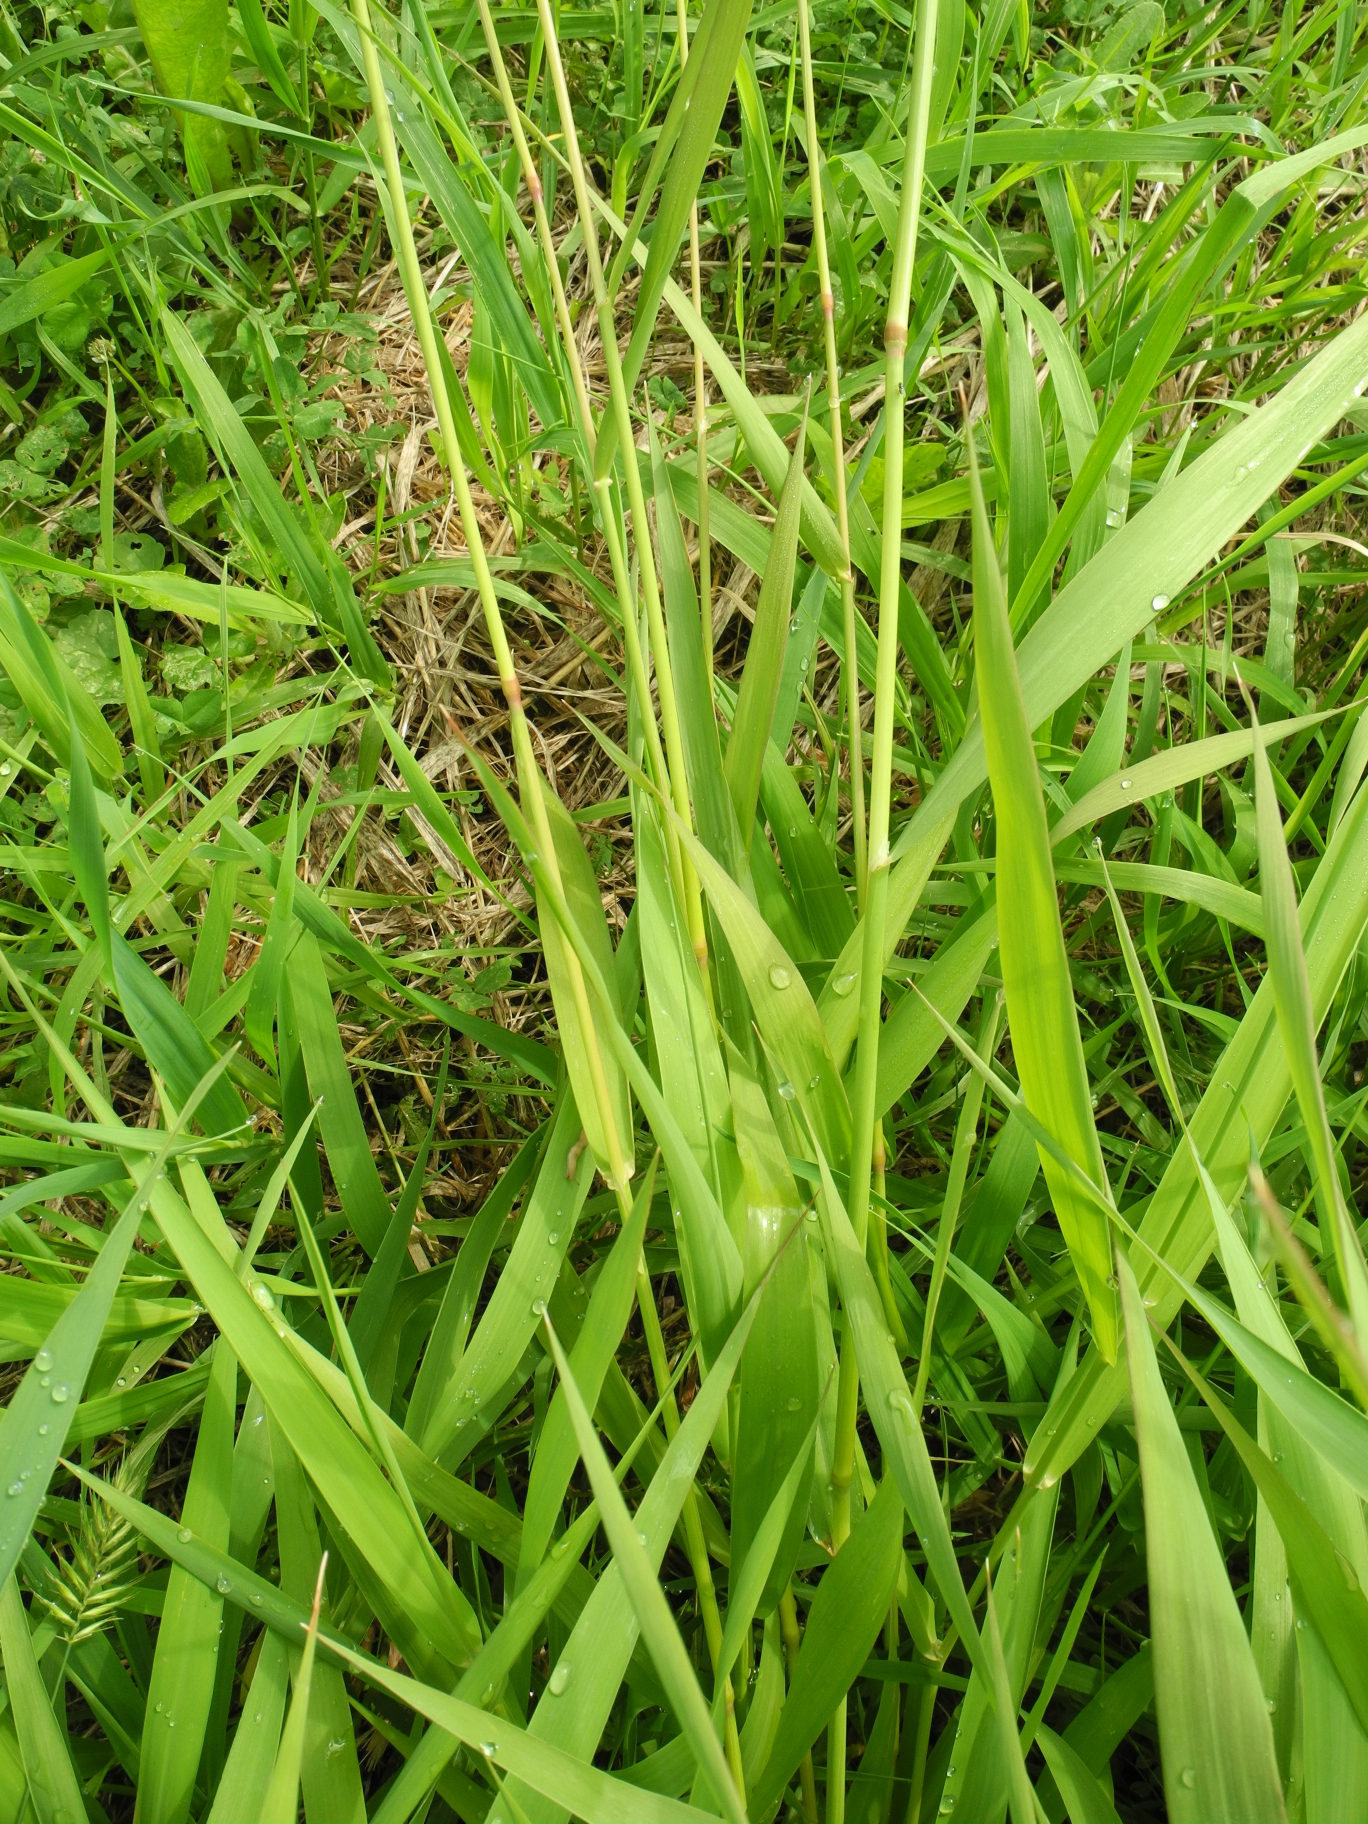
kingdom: Plantae
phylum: Tracheophyta
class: Liliopsida
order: Poales
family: Poaceae
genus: Dactylis
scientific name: Dactylis glomerata
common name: Orchardgrass
